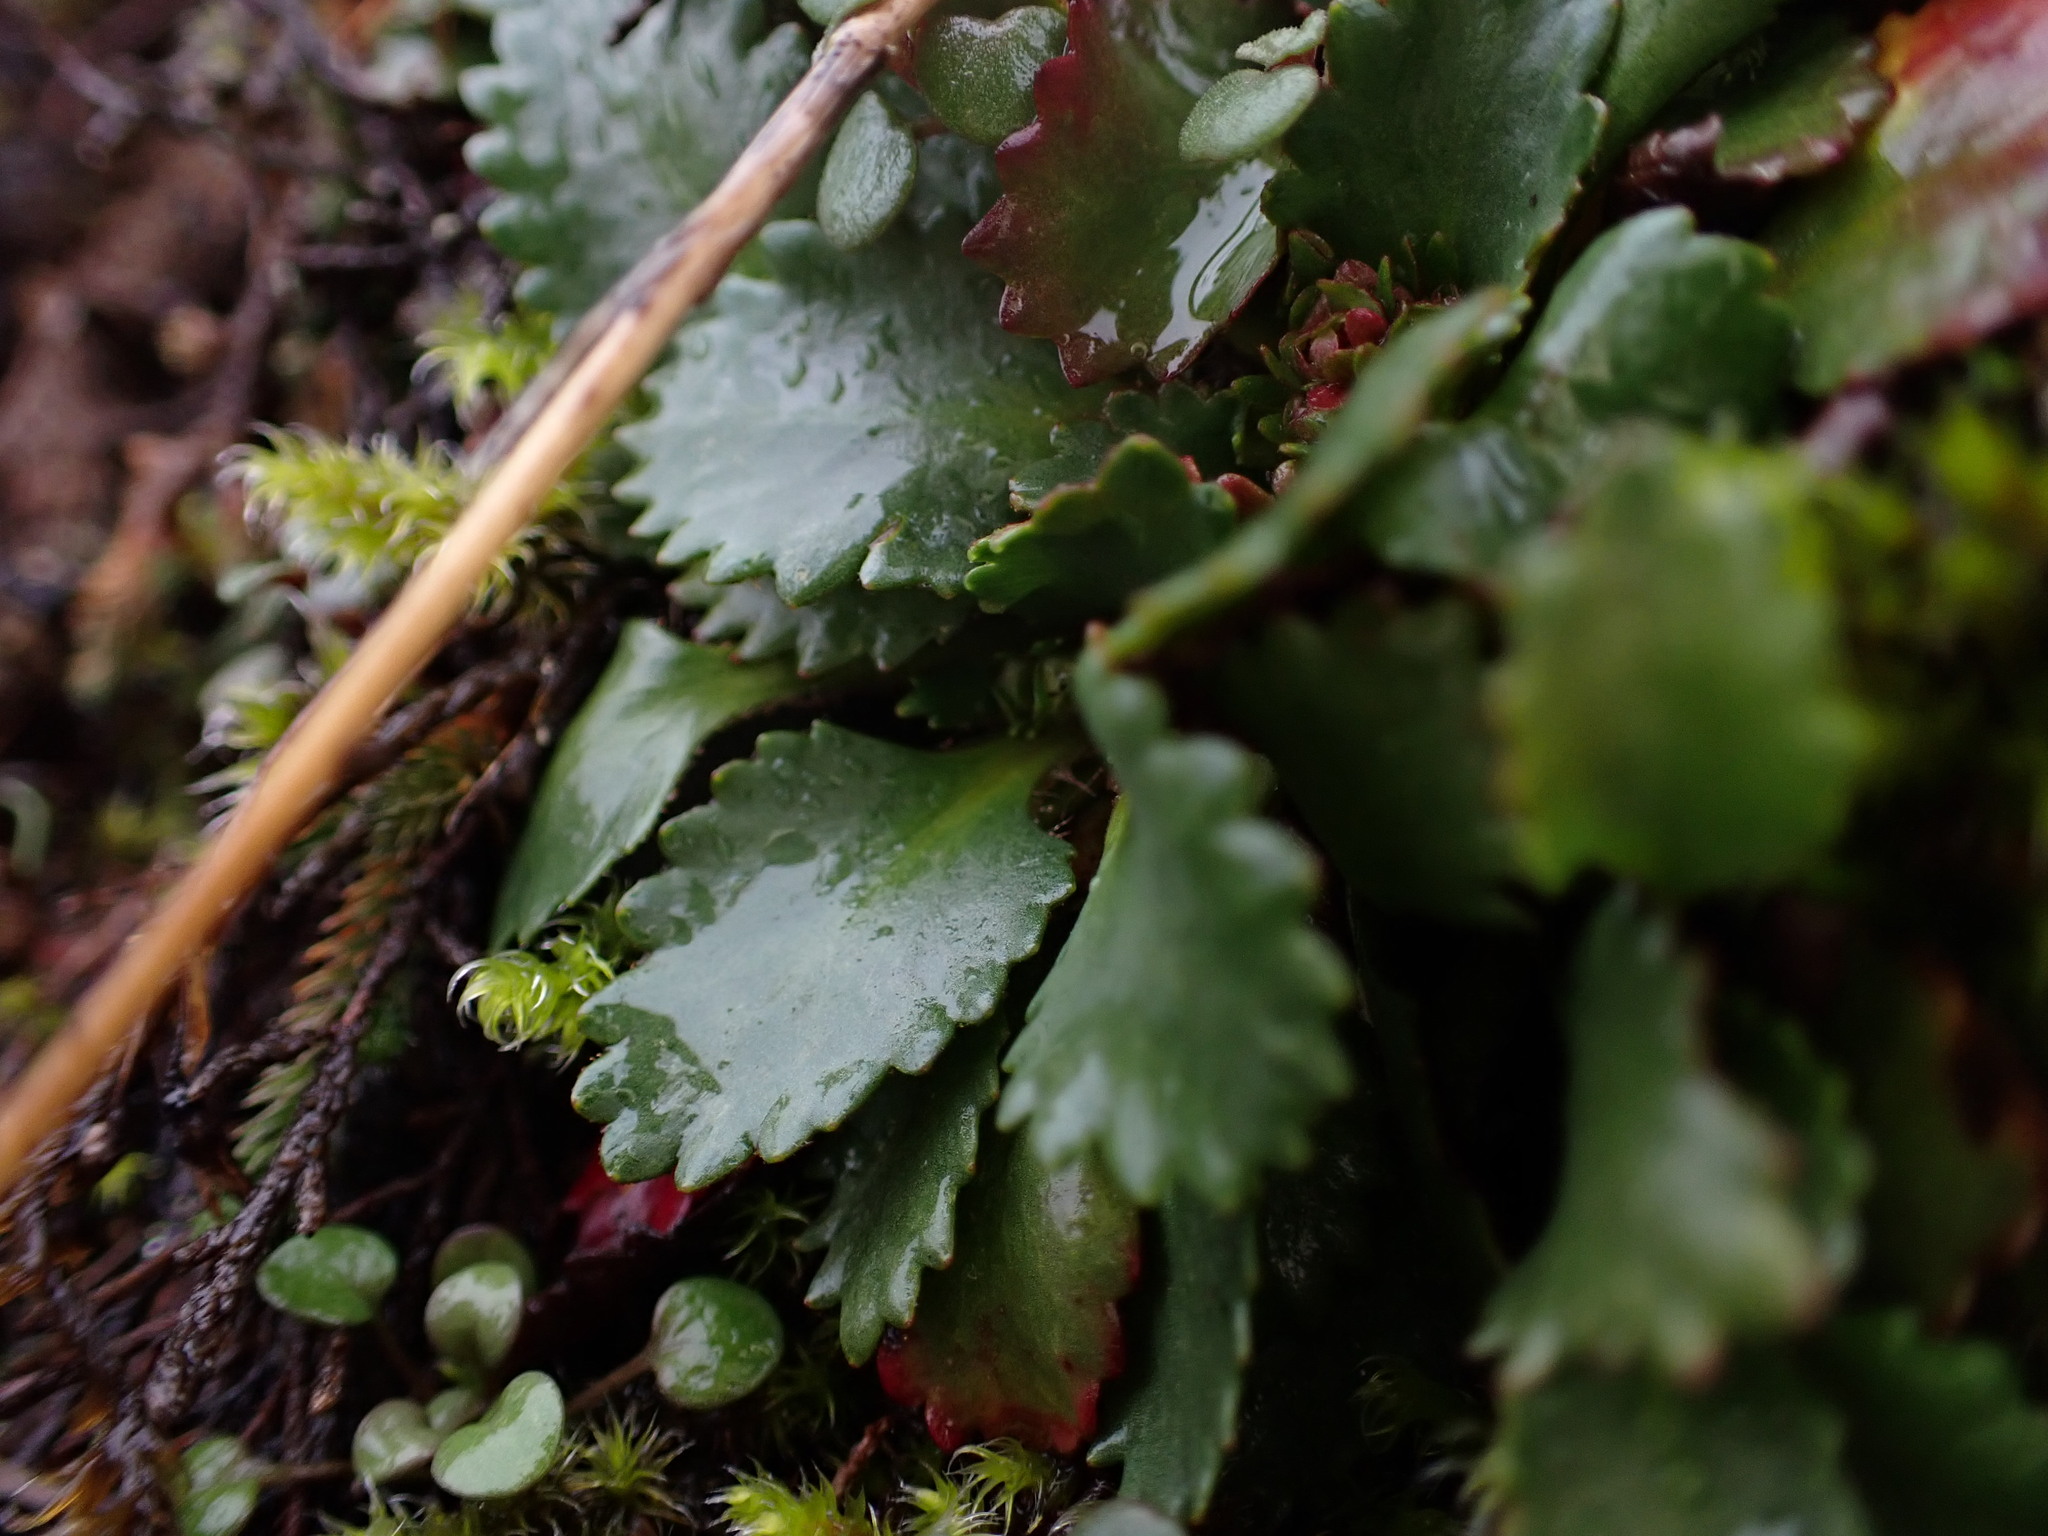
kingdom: Plantae
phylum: Tracheophyta
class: Magnoliopsida
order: Saxifragales
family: Saxifragaceae
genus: Micranthes
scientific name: Micranthes rufidula
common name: Rustyhair saxifrage
